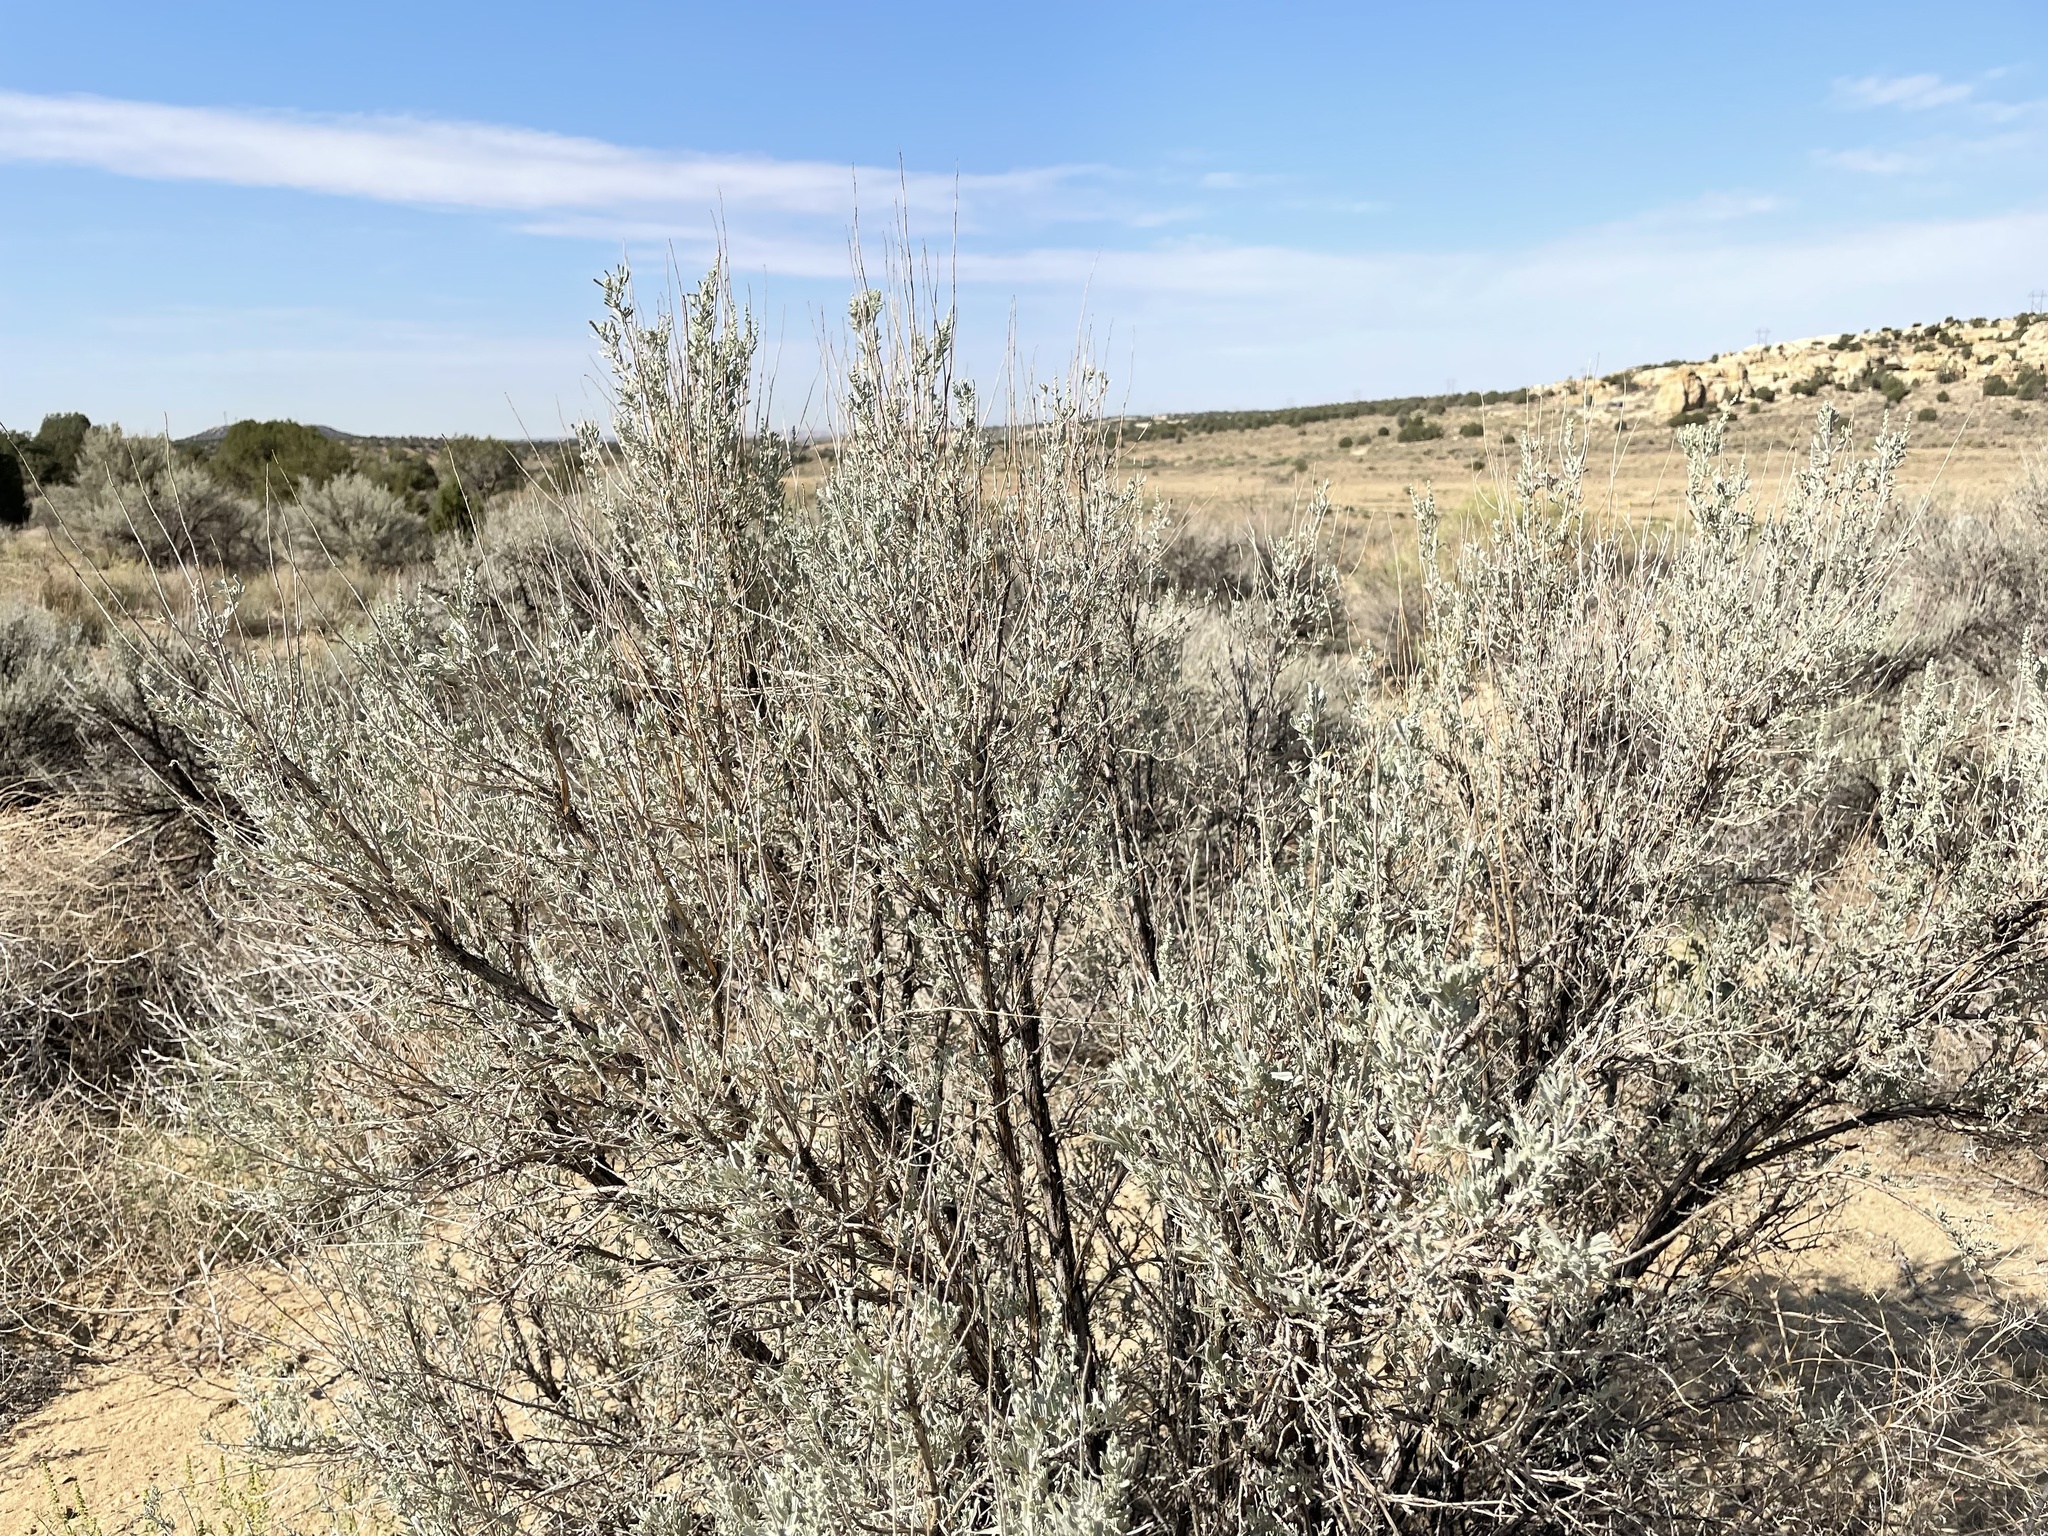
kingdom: Plantae
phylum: Tracheophyta
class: Magnoliopsida
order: Asterales
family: Asteraceae
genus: Artemisia
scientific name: Artemisia tridentata
